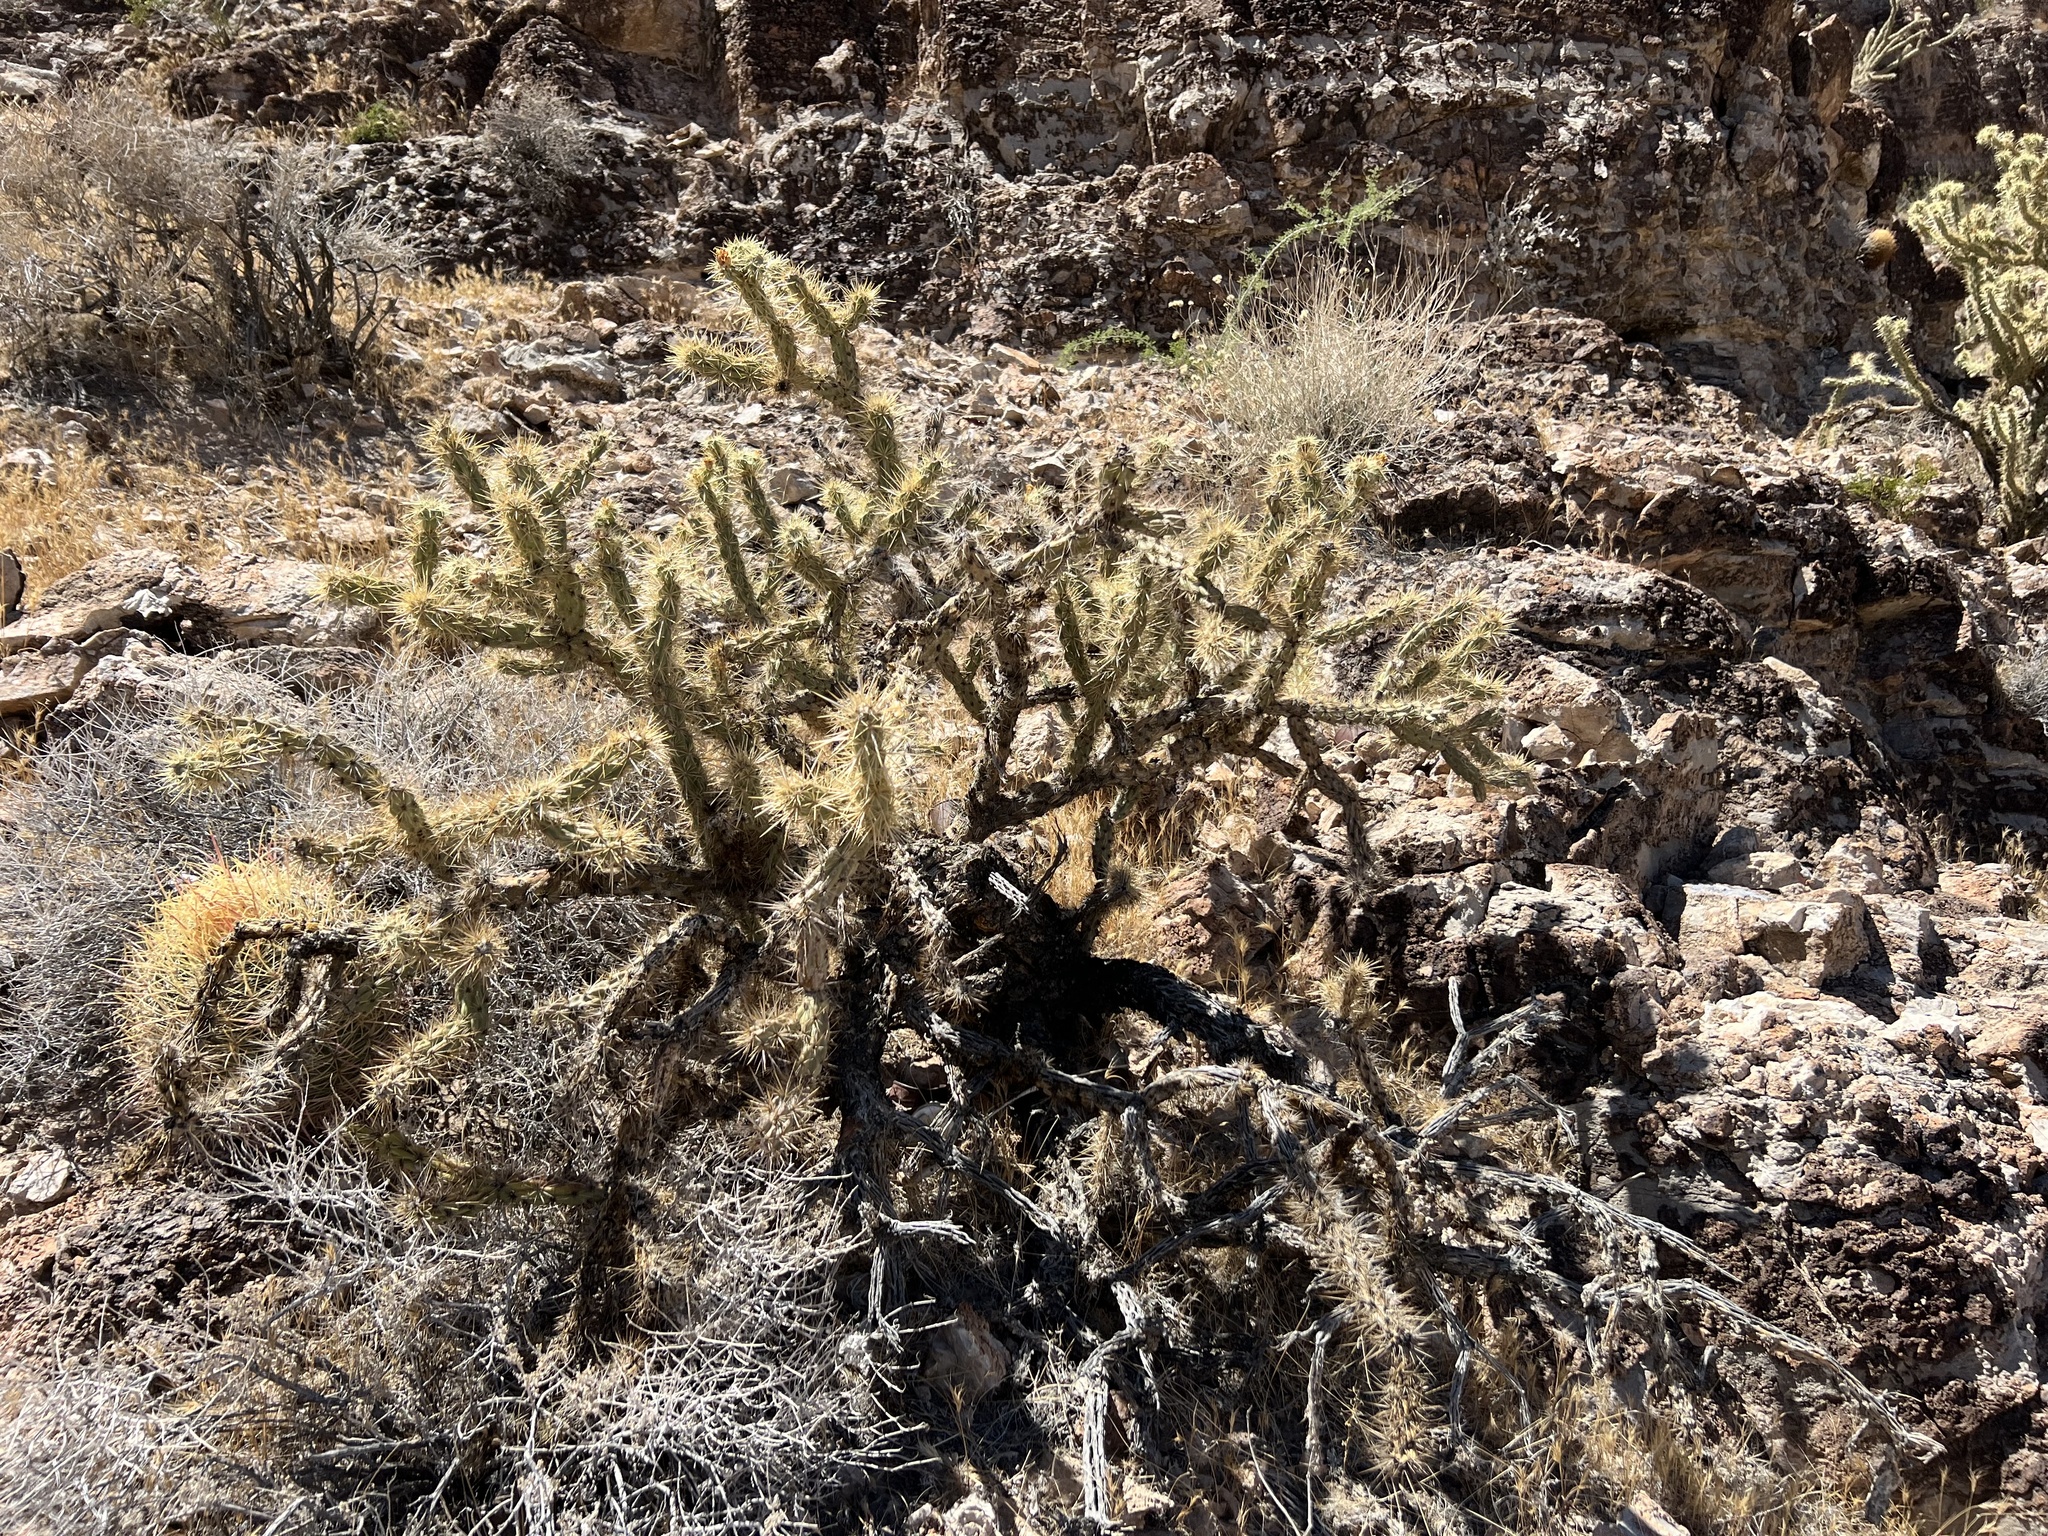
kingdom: Plantae
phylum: Tracheophyta
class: Magnoliopsida
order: Caryophyllales
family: Cactaceae
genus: Cylindropuntia
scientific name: Cylindropuntia acanthocarpa
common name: Buckhorn cholla
